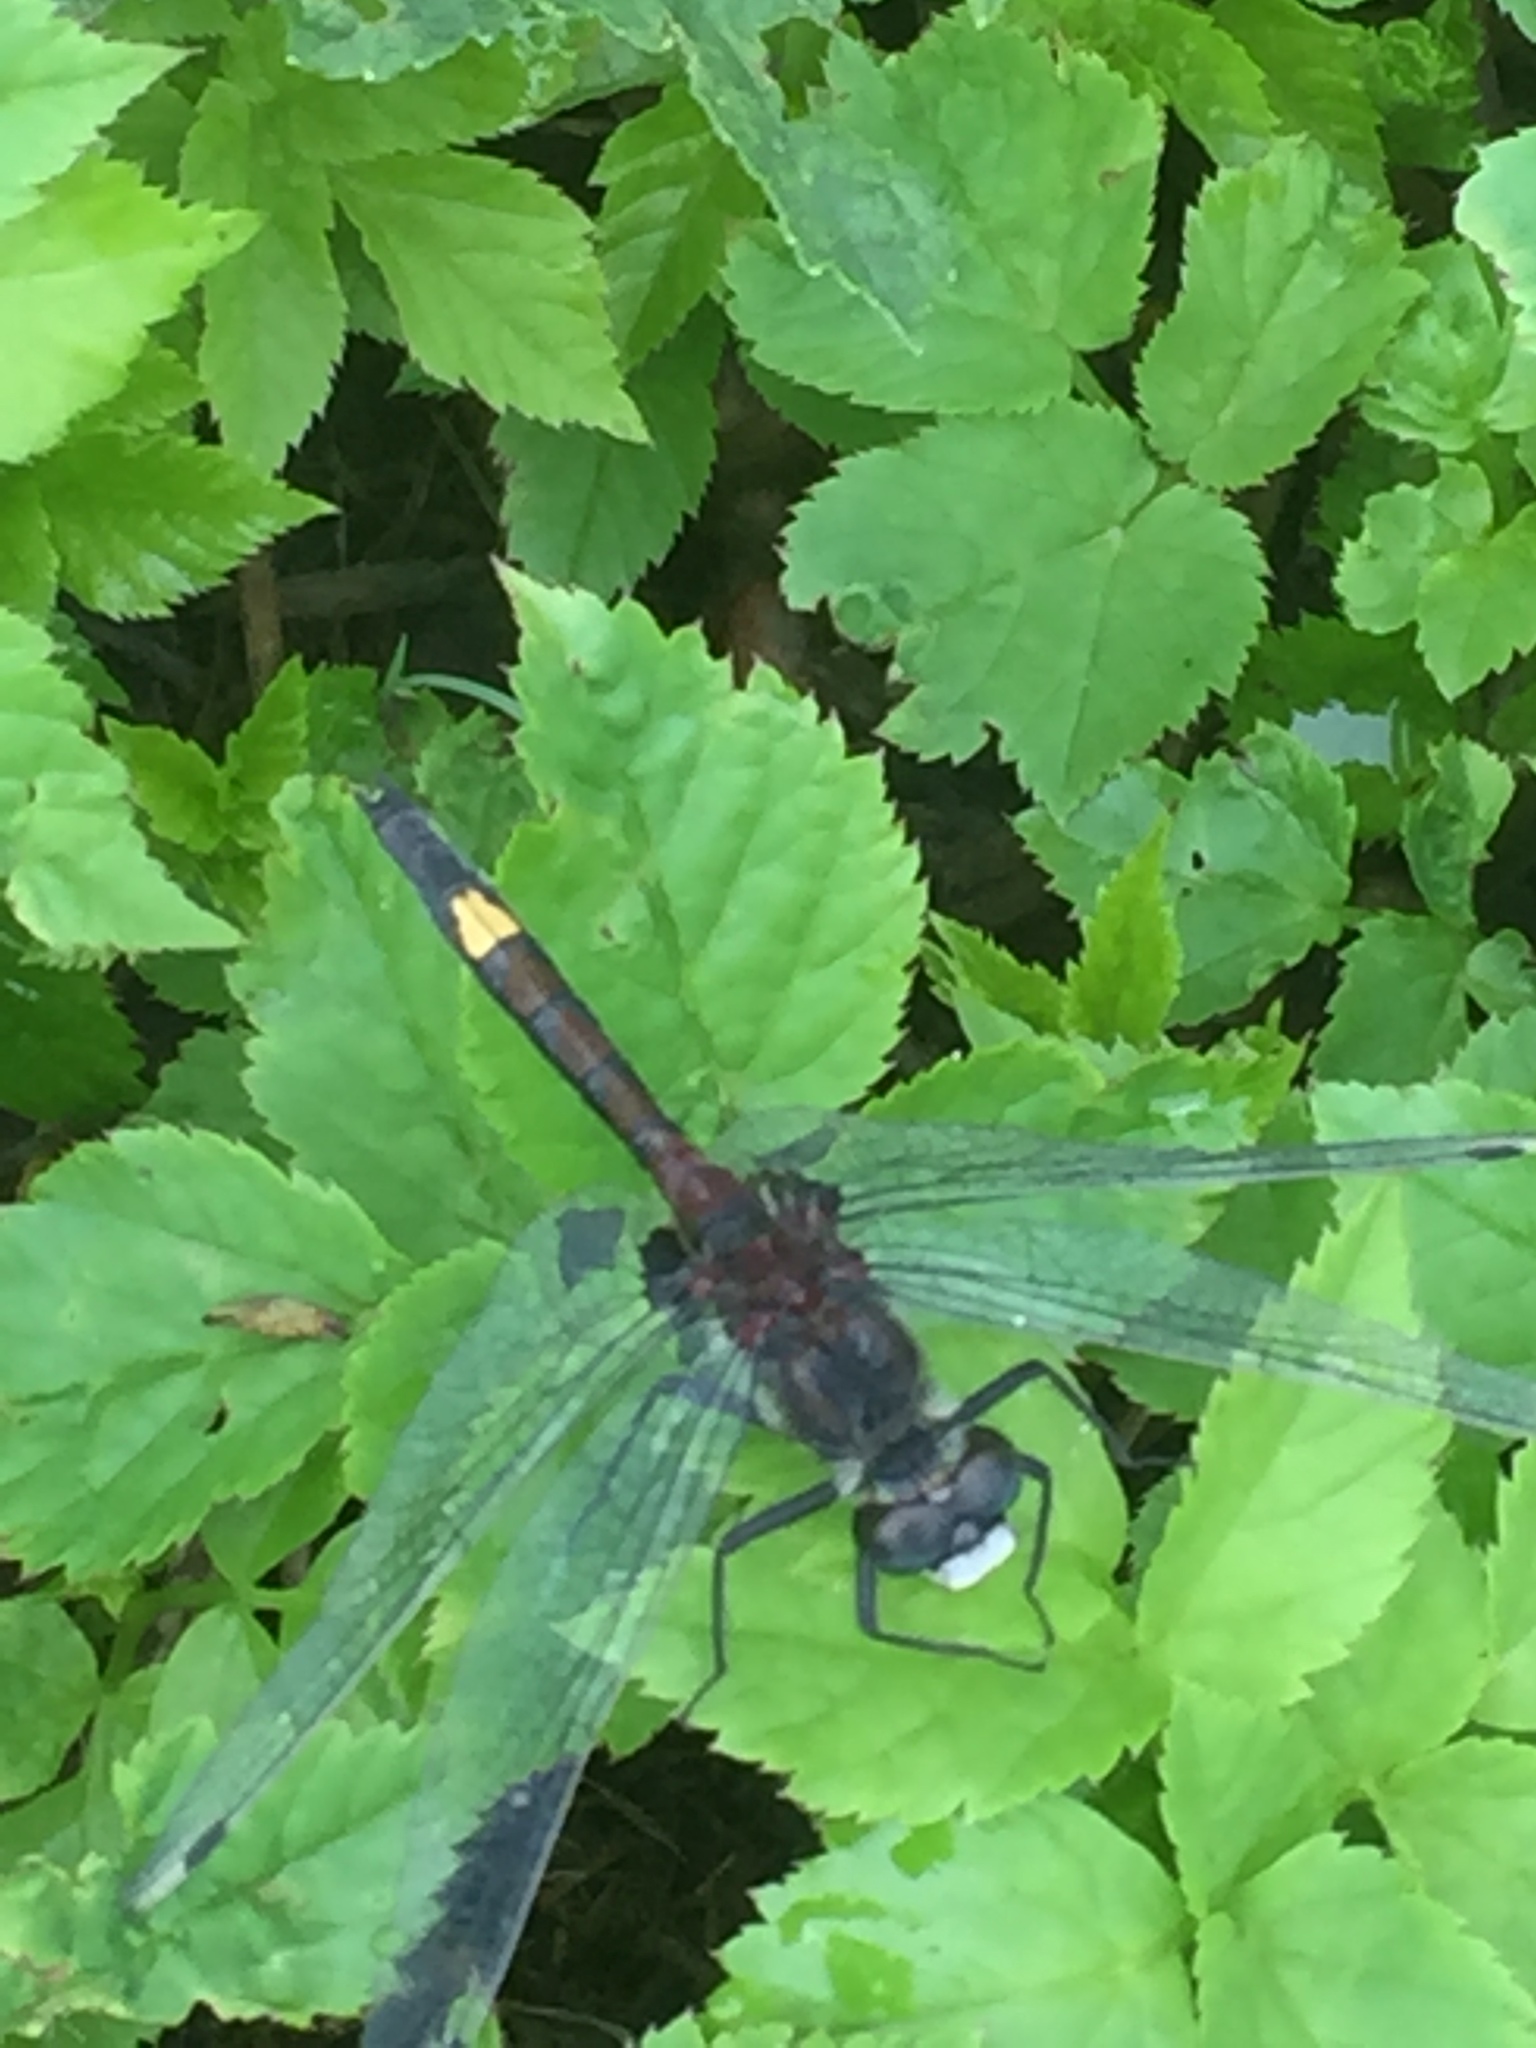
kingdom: Animalia
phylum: Arthropoda
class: Insecta
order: Odonata
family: Libellulidae
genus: Leucorrhinia
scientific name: Leucorrhinia pectoralis
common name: Yellow-spotted whiteface
